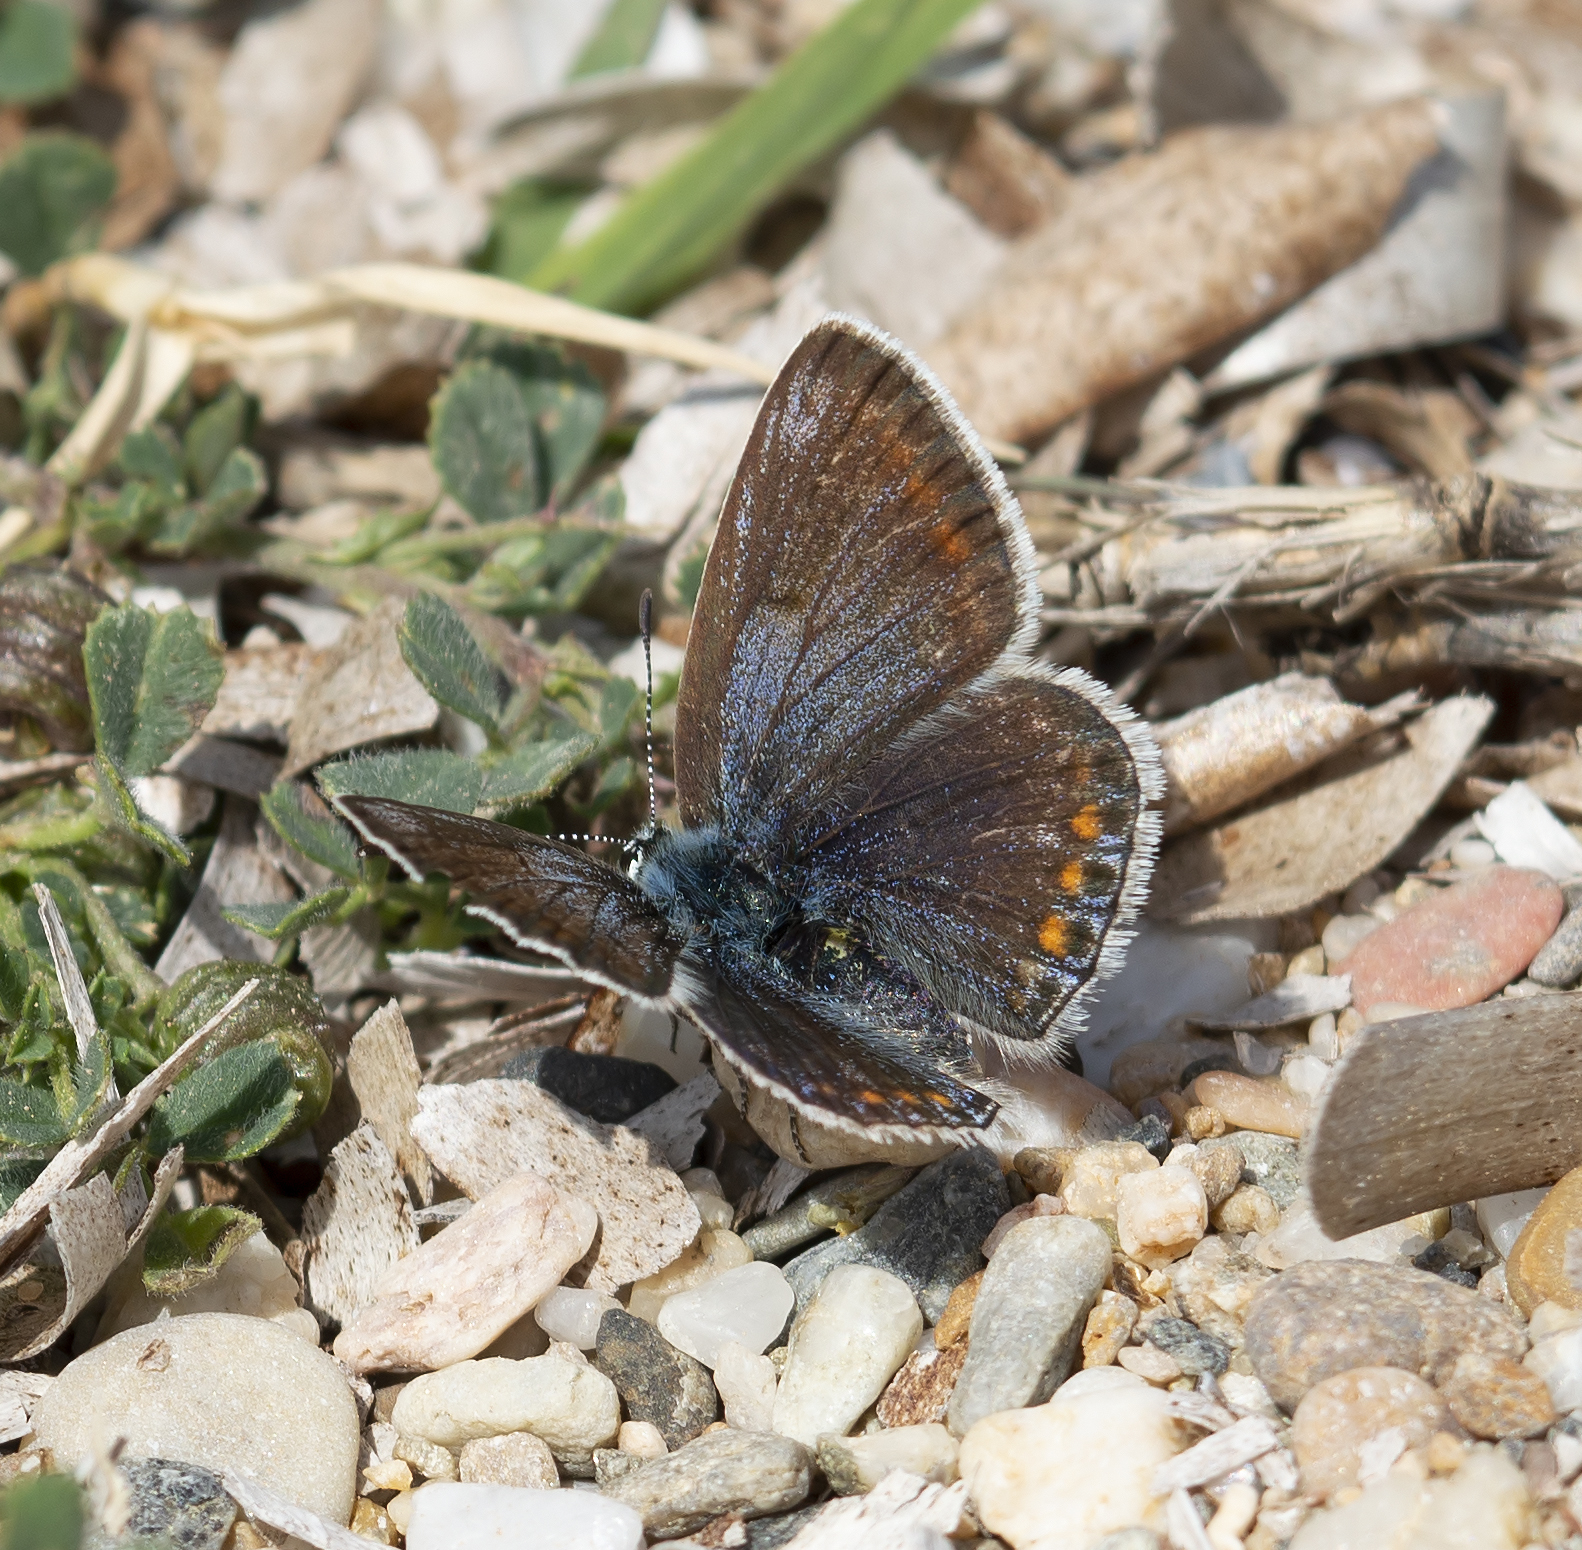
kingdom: Animalia
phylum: Arthropoda
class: Insecta
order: Lepidoptera
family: Lycaenidae
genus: Polyommatus
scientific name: Polyommatus icarus
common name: Common blue
